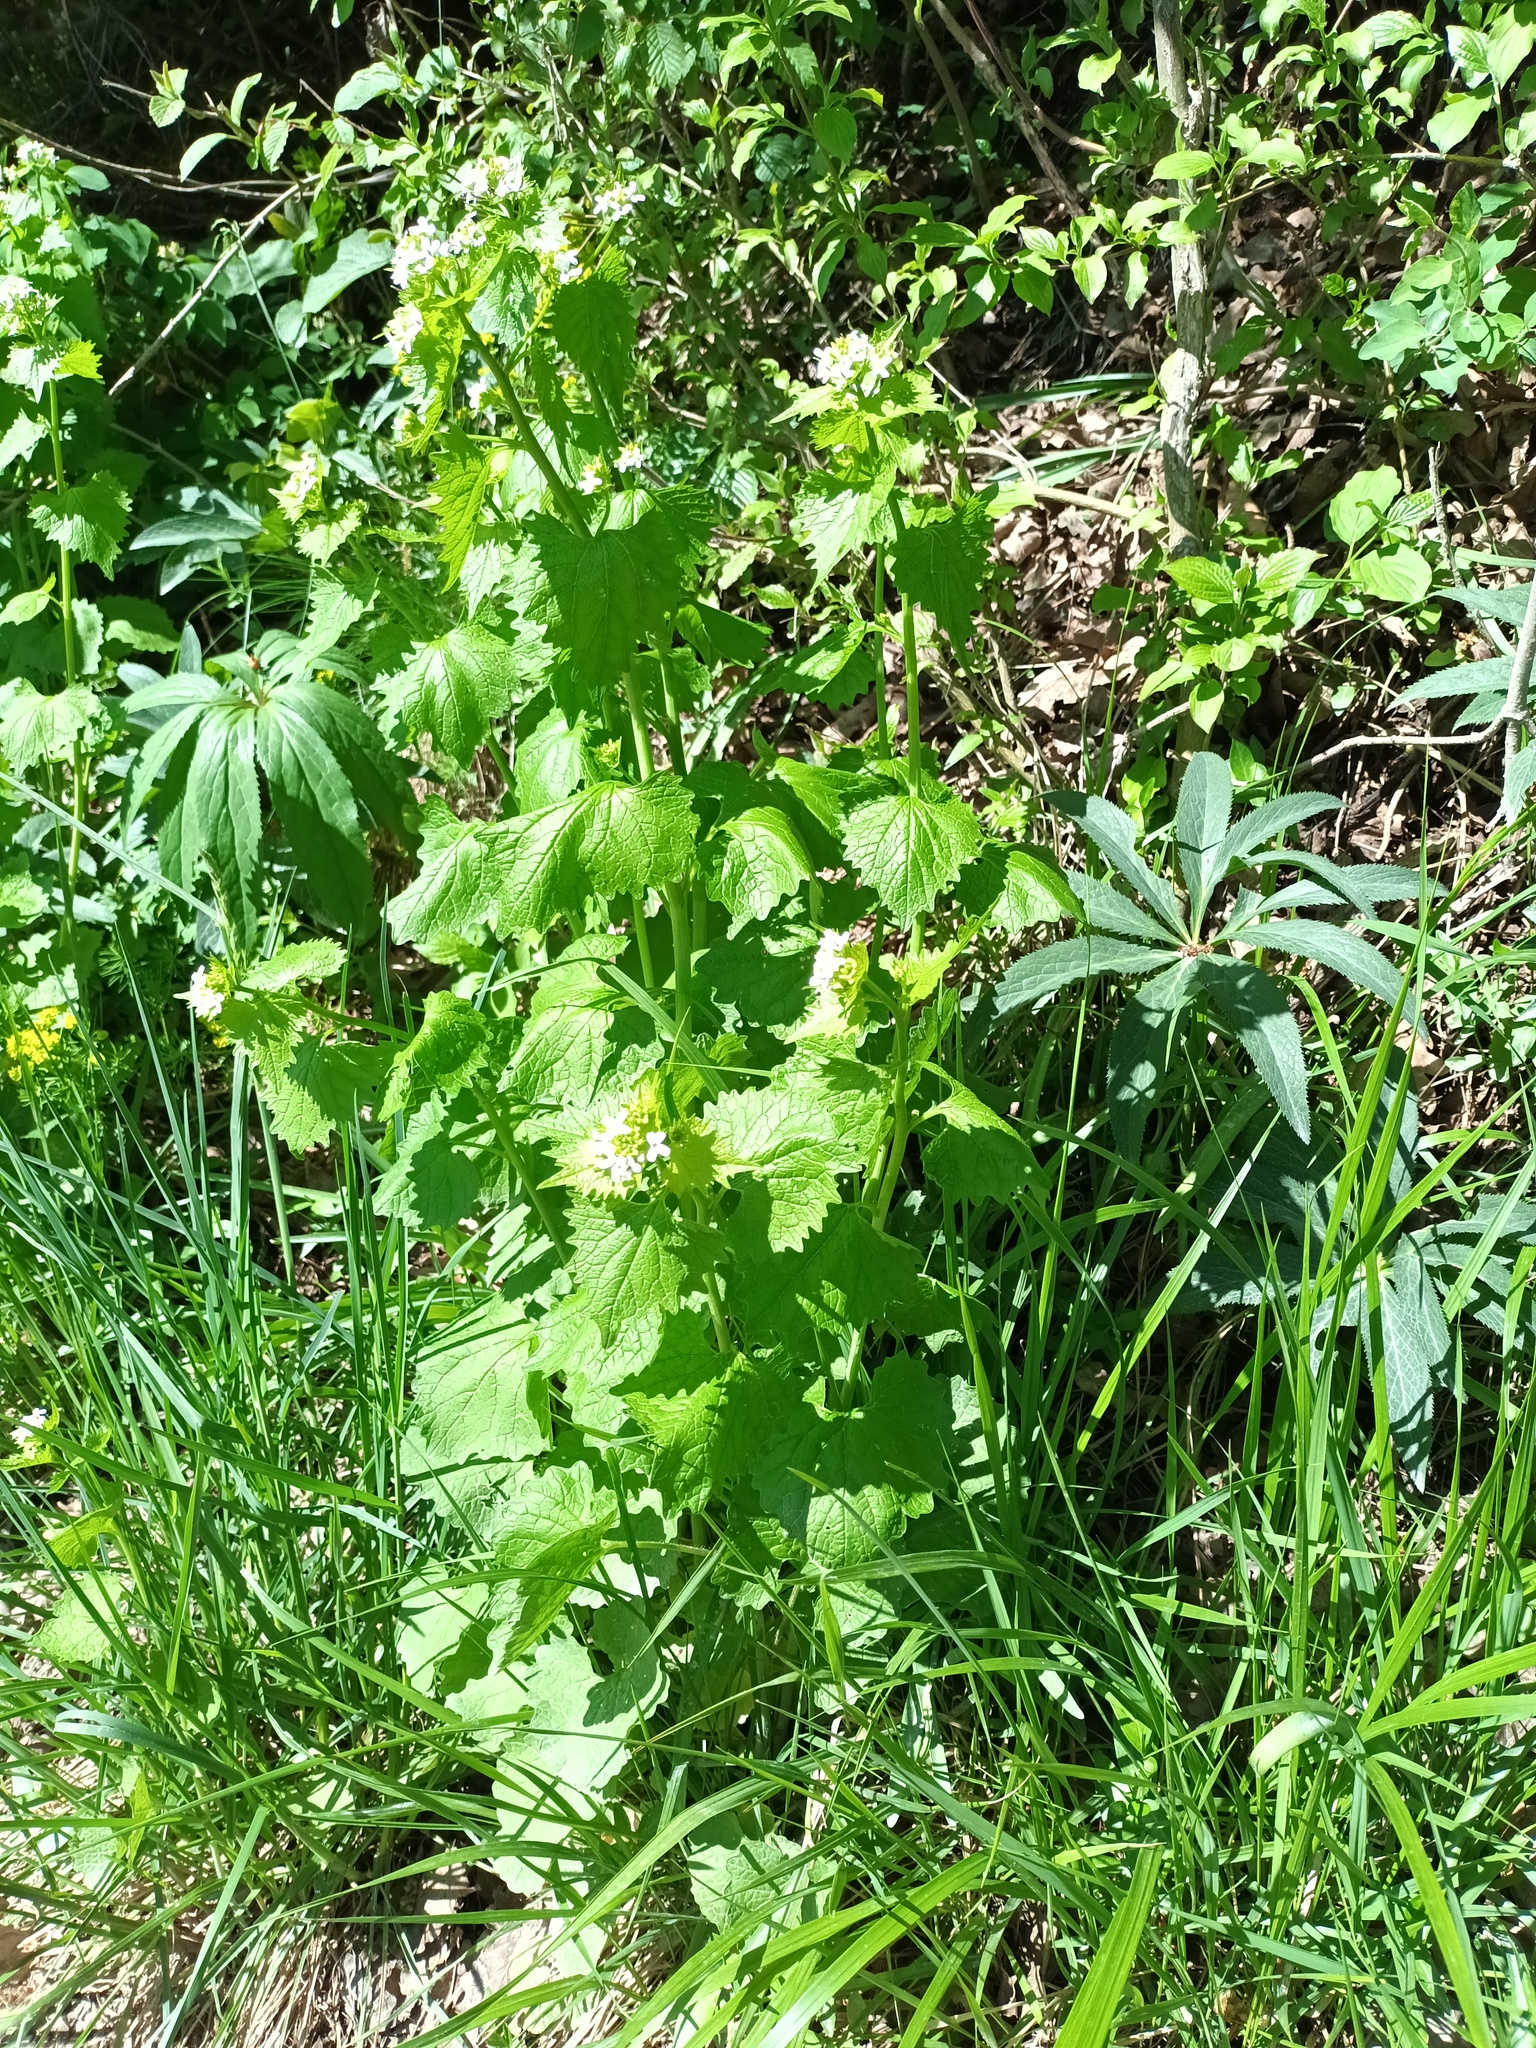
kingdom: Plantae
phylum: Tracheophyta
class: Magnoliopsida
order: Brassicales
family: Brassicaceae
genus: Alliaria
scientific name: Alliaria petiolata
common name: Garlic mustard
